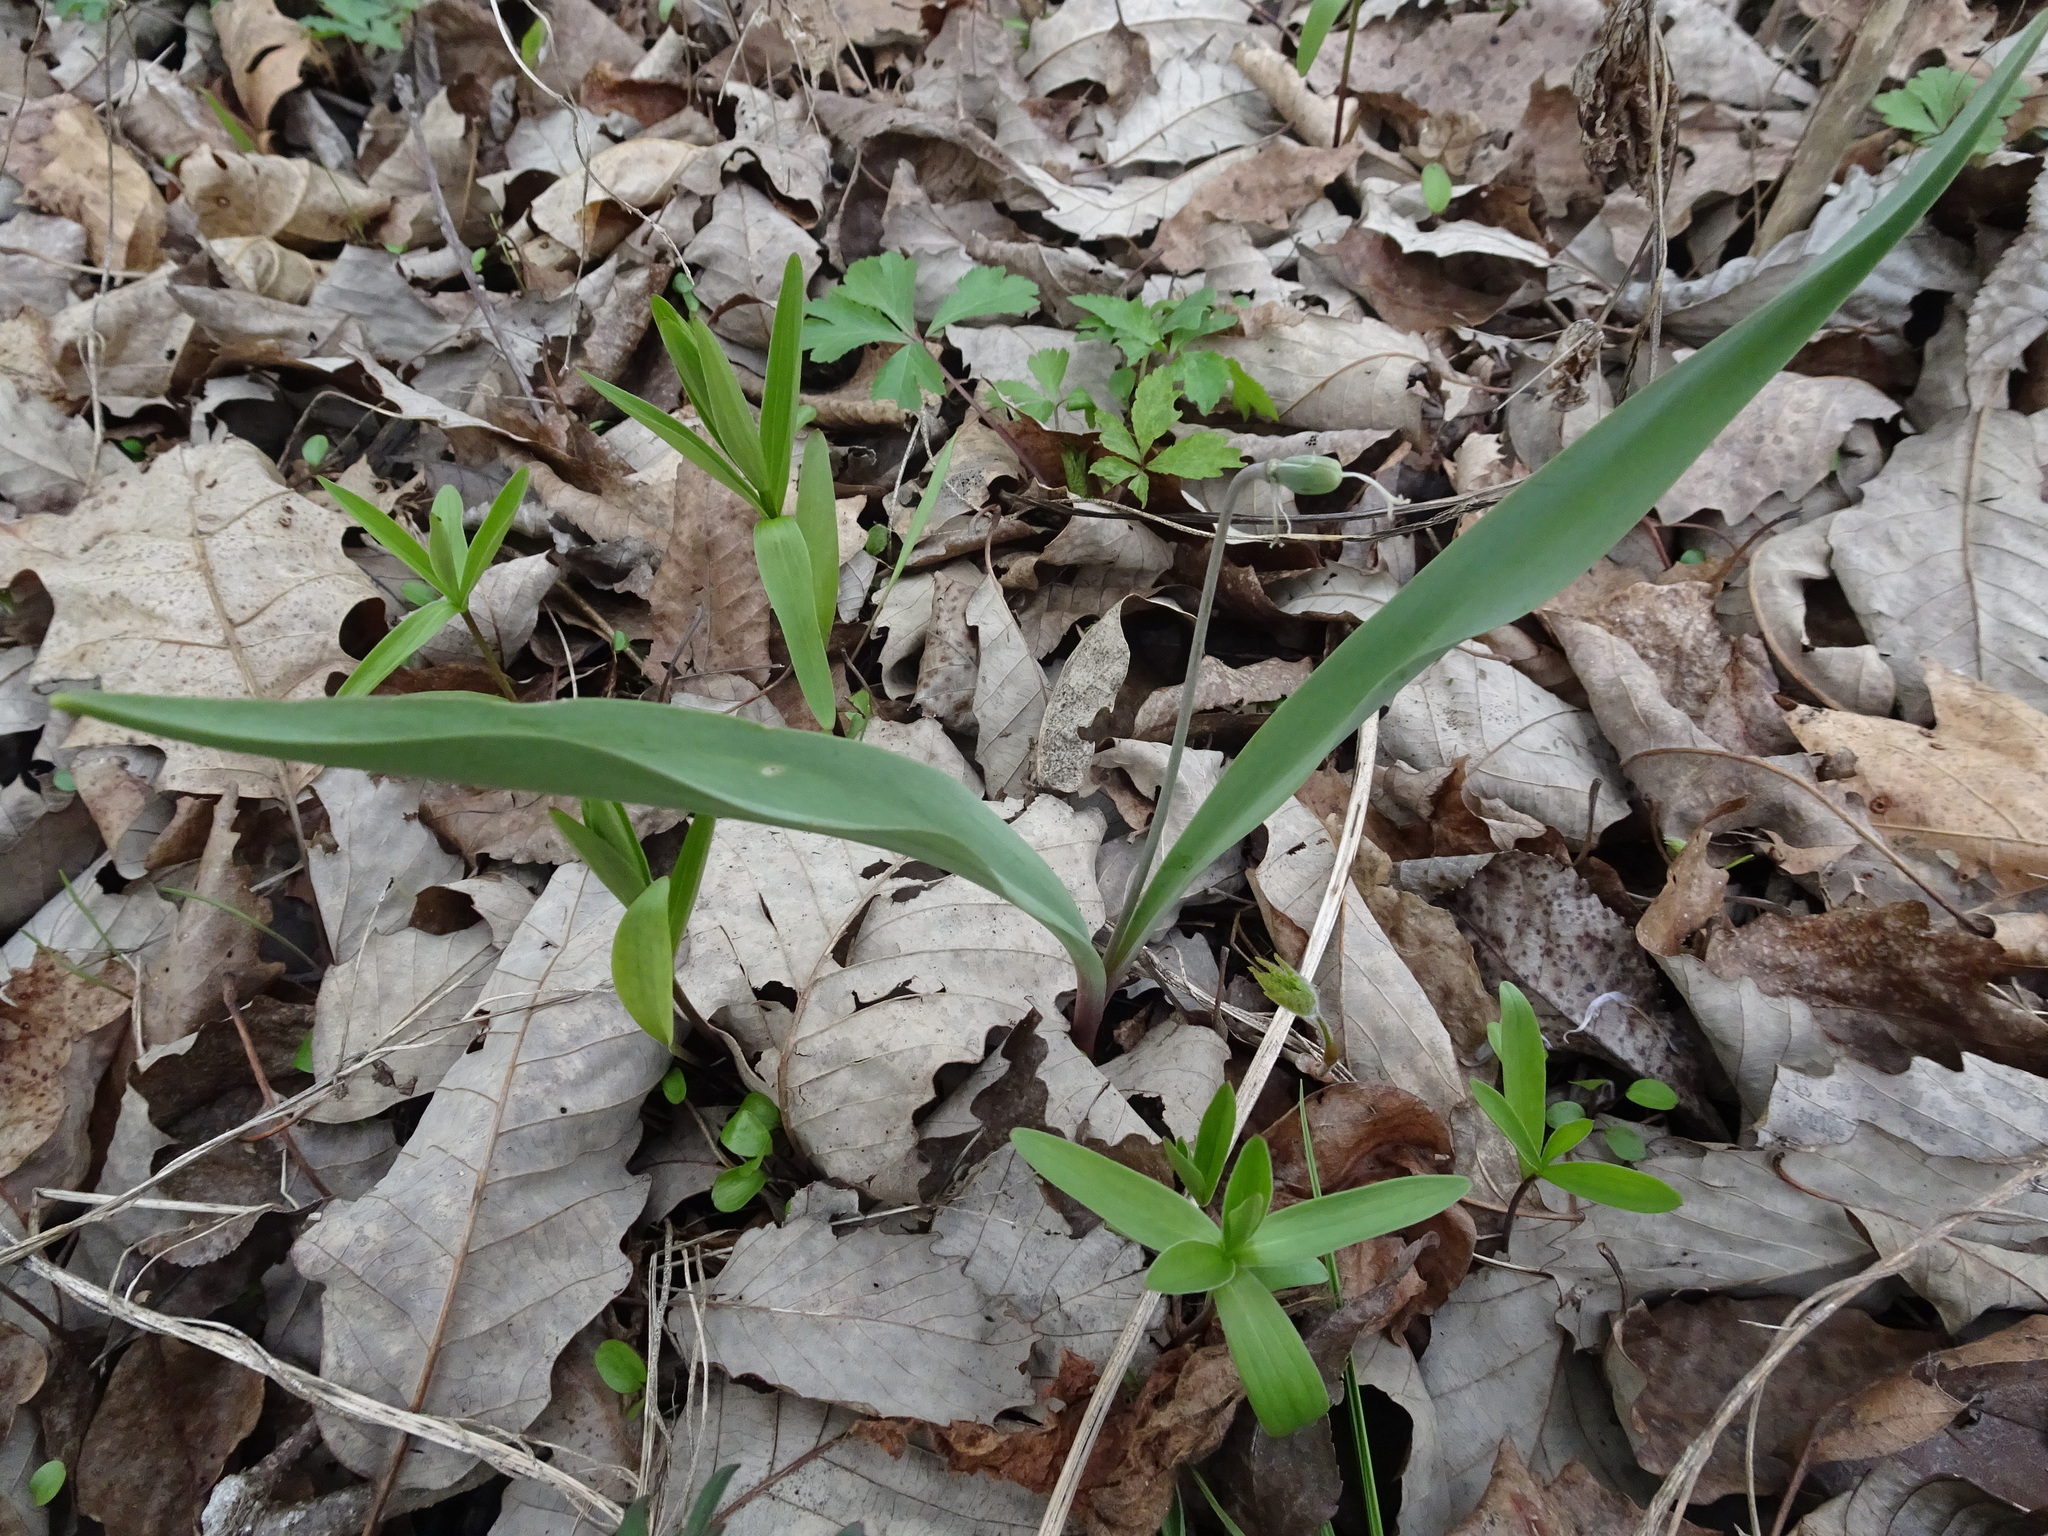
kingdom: Plantae
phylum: Tracheophyta
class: Liliopsida
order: Liliales
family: Liliaceae
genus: Erythronium
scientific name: Erythronium mesochoreum
